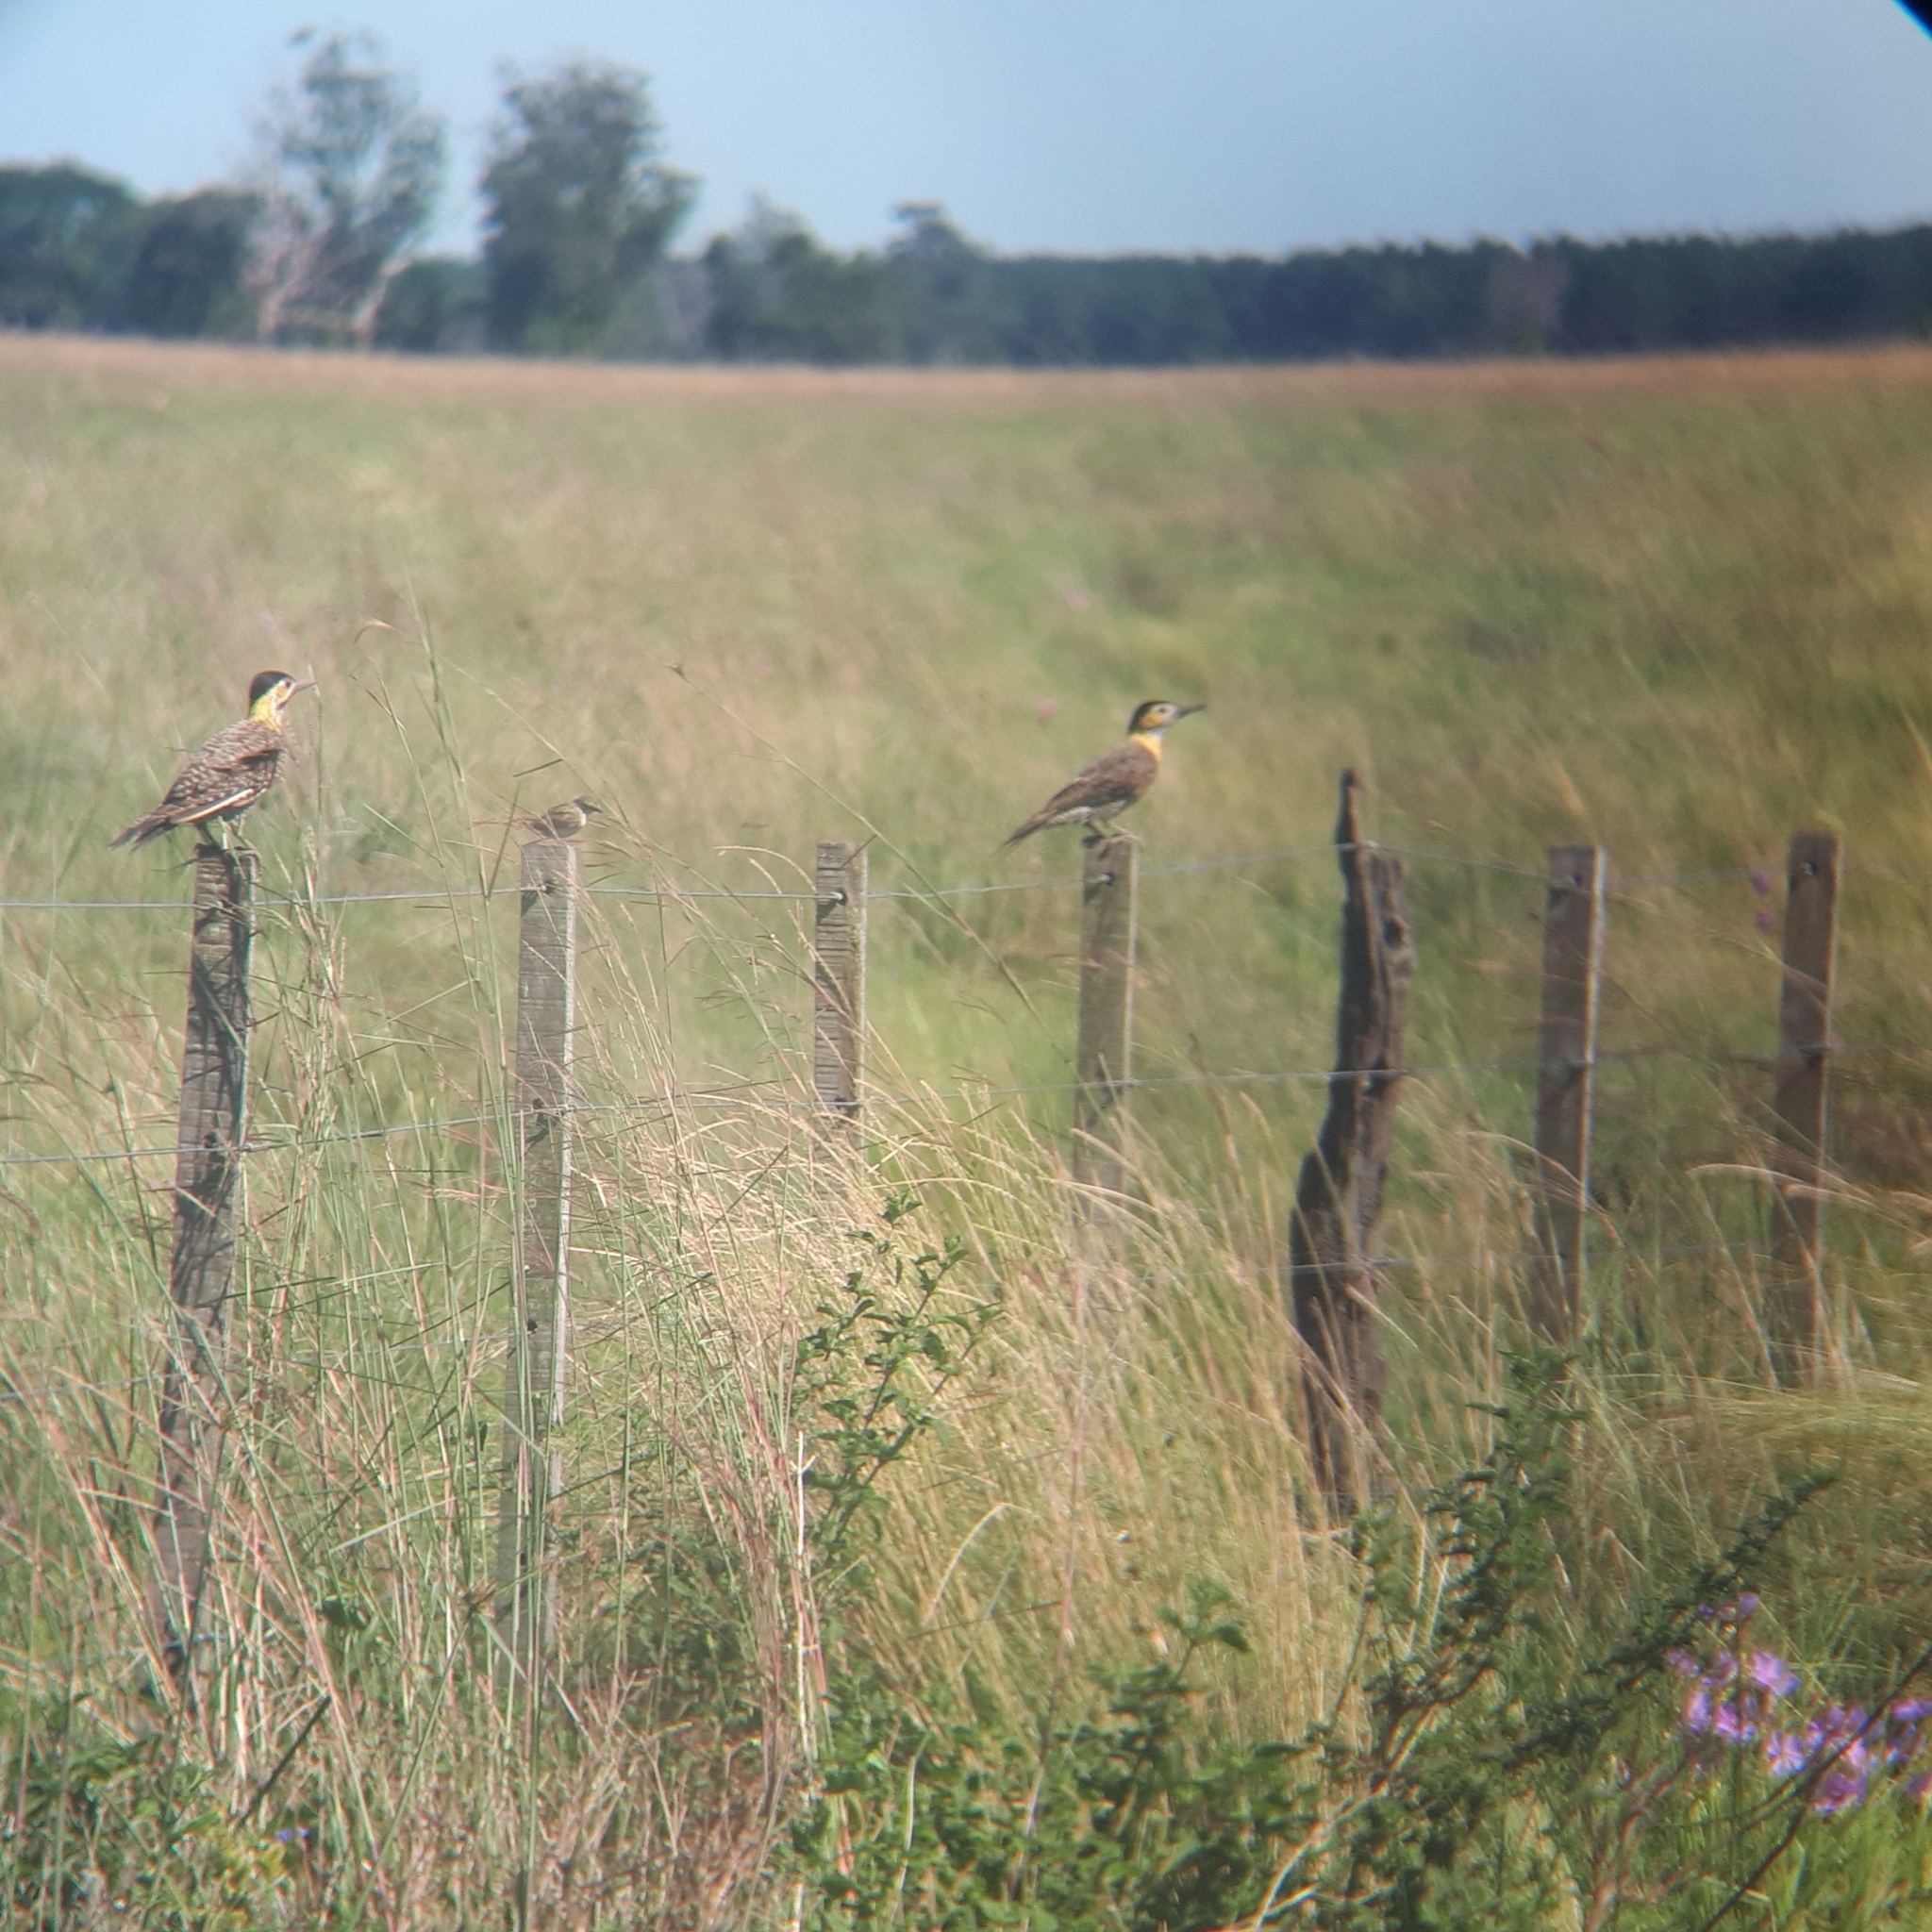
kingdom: Animalia
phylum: Chordata
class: Aves
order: Piciformes
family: Picidae
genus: Colaptes
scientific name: Colaptes campestris
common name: Campo flicker
